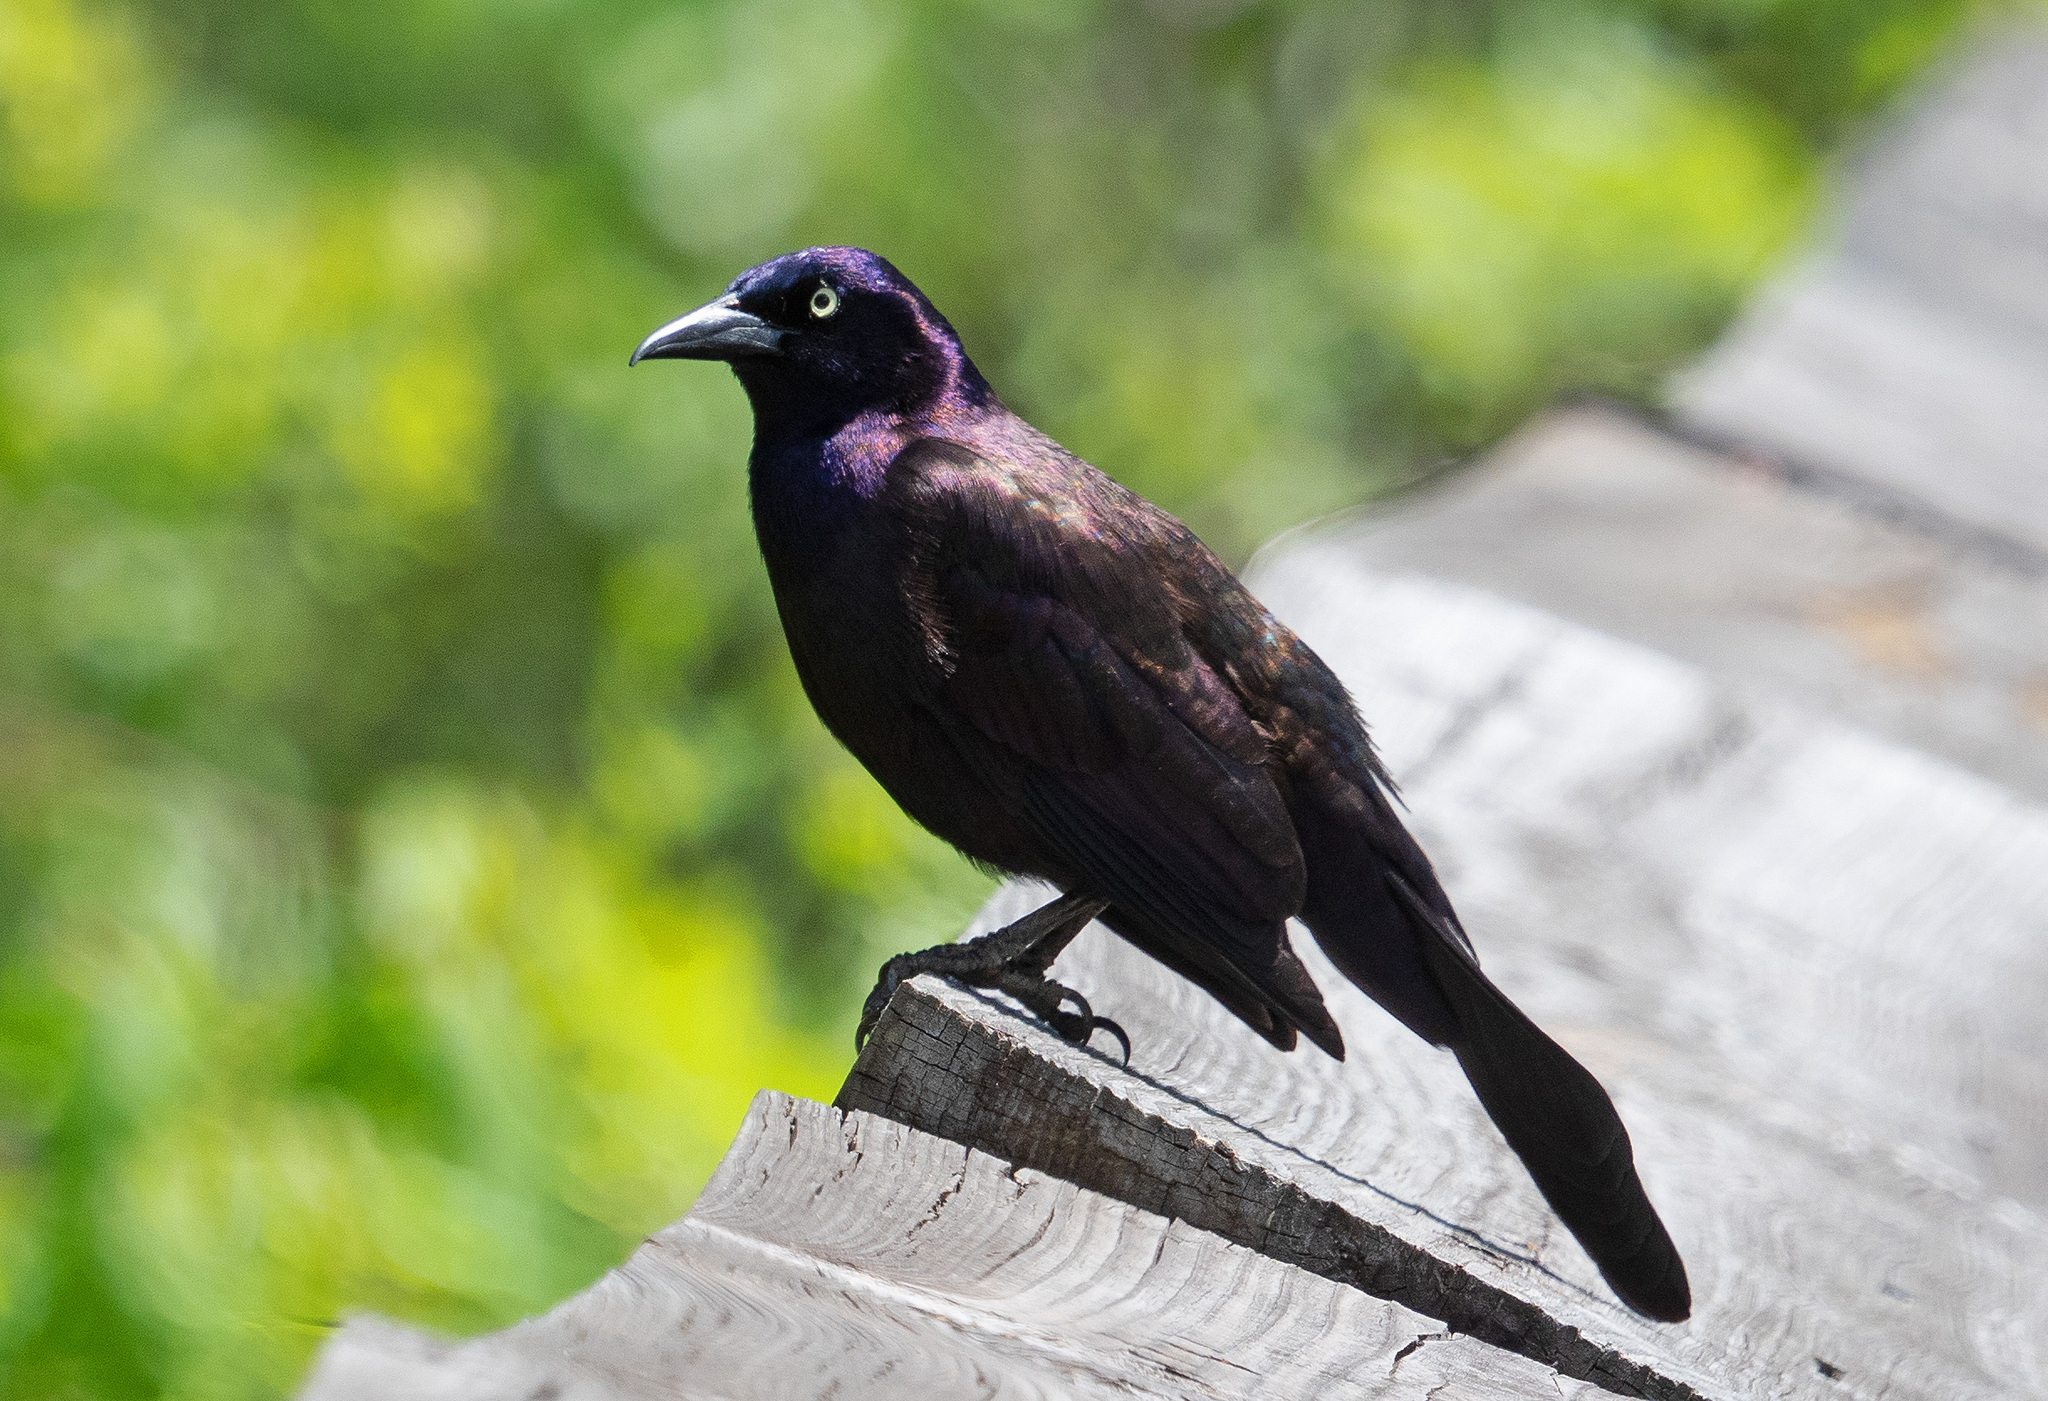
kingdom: Animalia
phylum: Chordata
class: Aves
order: Passeriformes
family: Icteridae
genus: Quiscalus
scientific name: Quiscalus quiscula
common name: Common grackle
